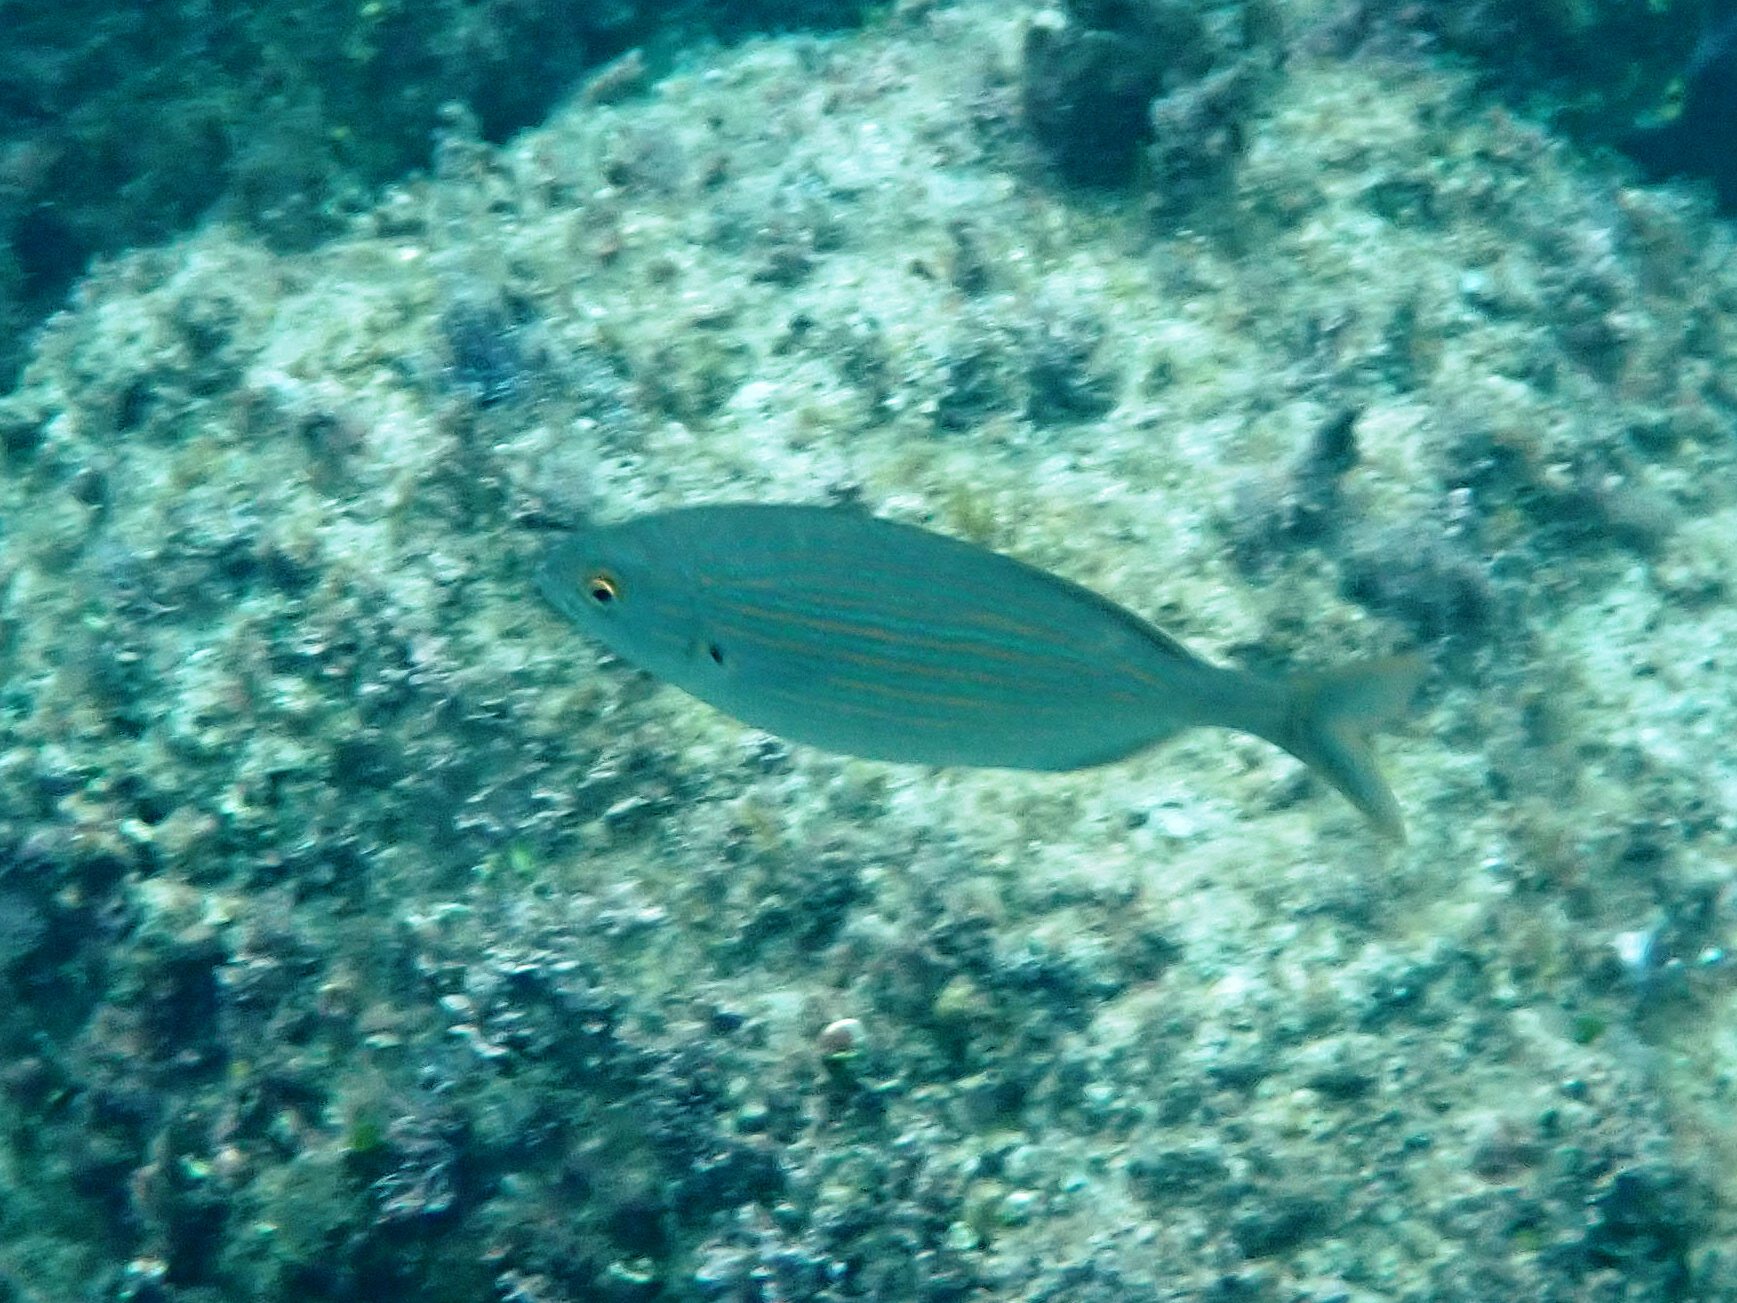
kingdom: Animalia
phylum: Chordata
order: Perciformes
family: Sparidae
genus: Sarpa
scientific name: Sarpa salpa
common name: Salema
